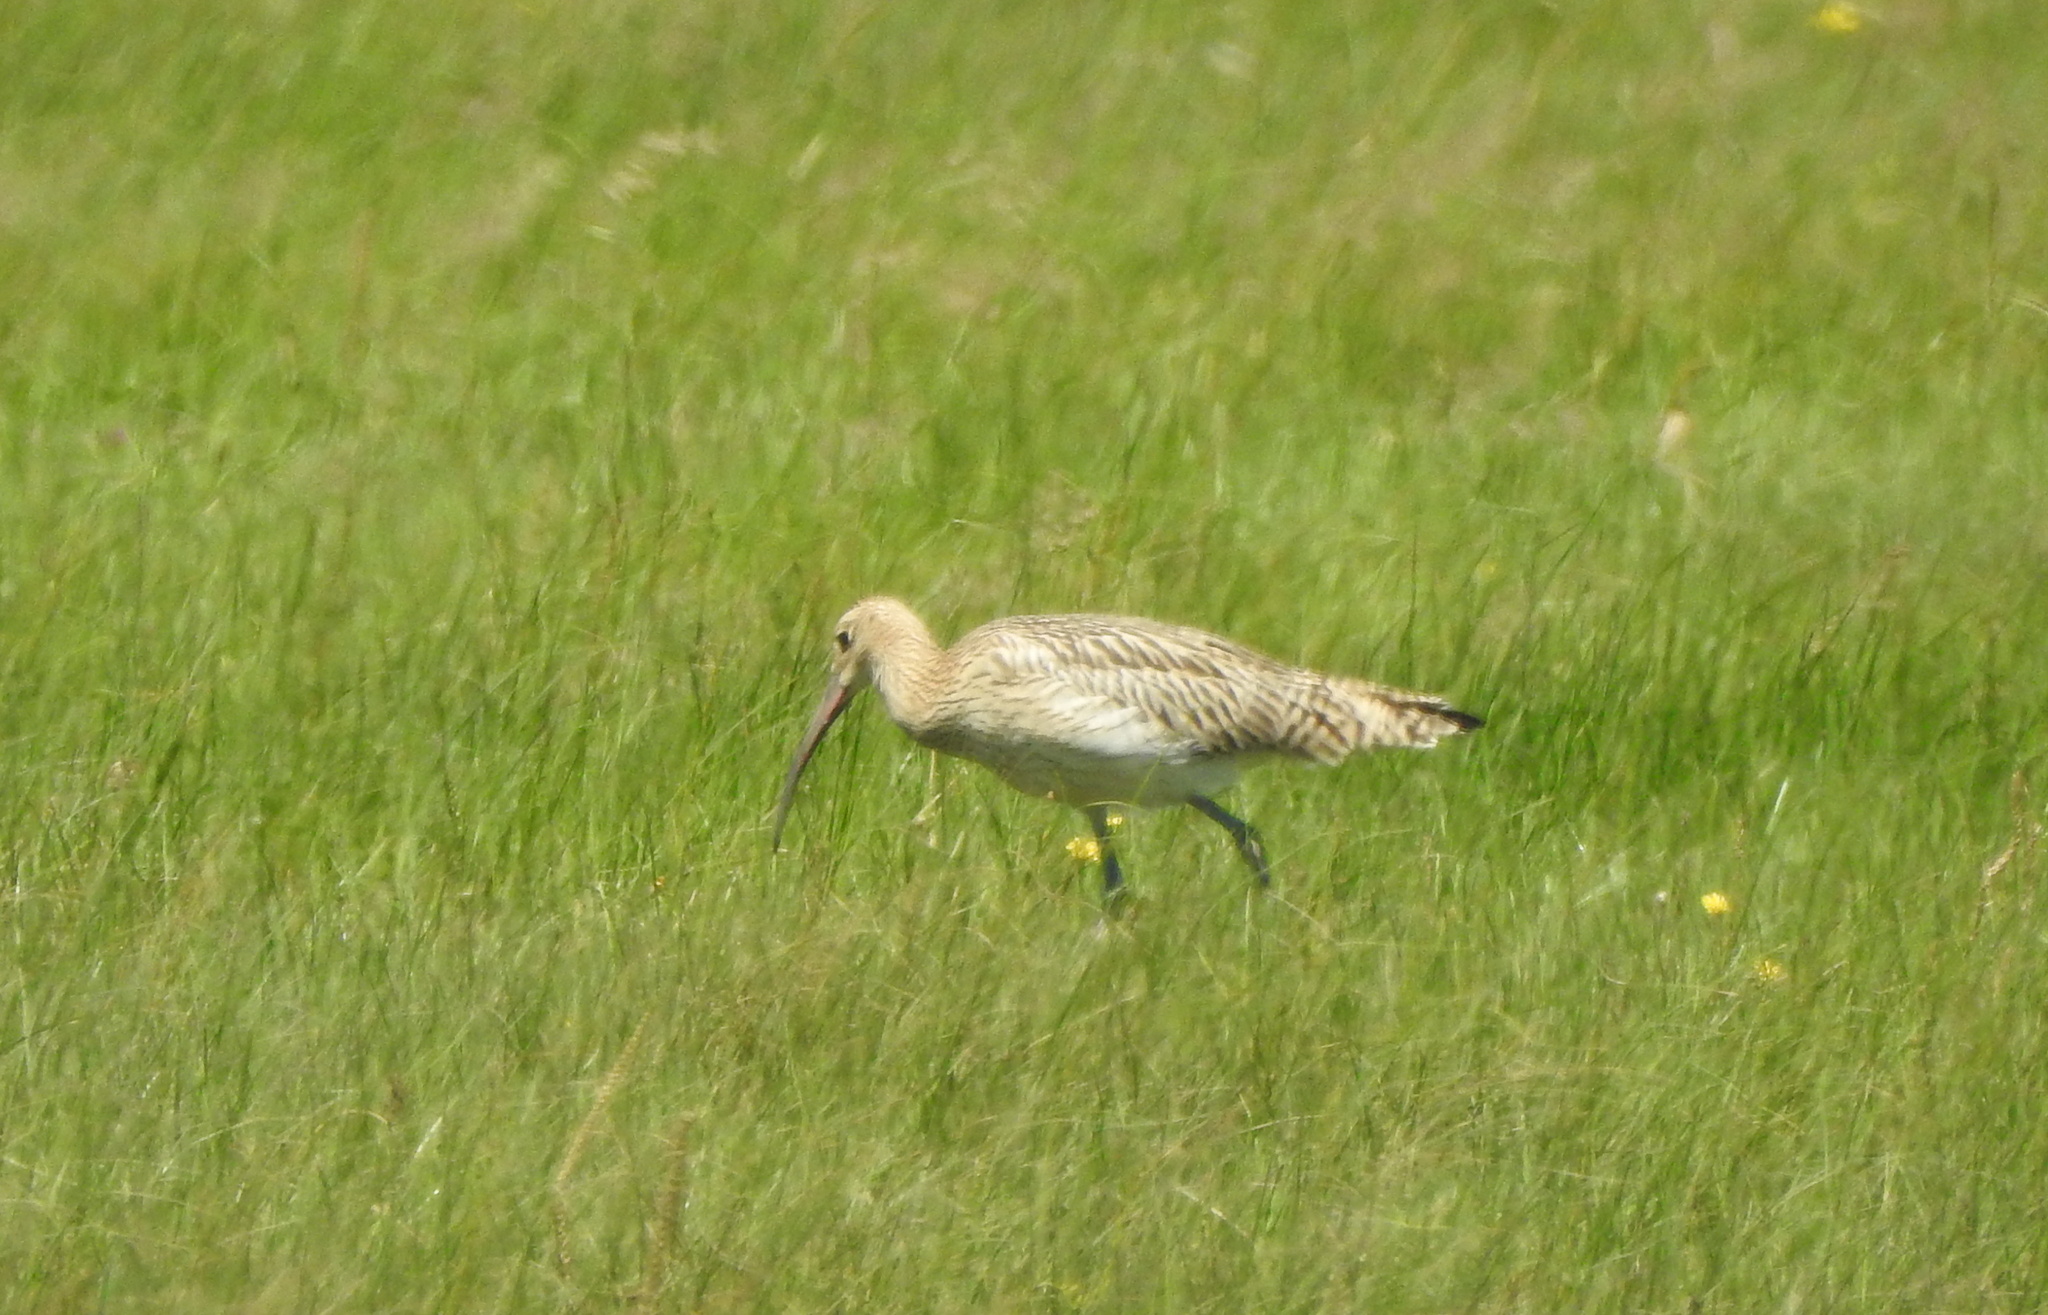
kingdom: Animalia
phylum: Chordata
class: Aves
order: Charadriiformes
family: Scolopacidae
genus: Numenius
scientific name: Numenius arquata
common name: Eurasian curlew
